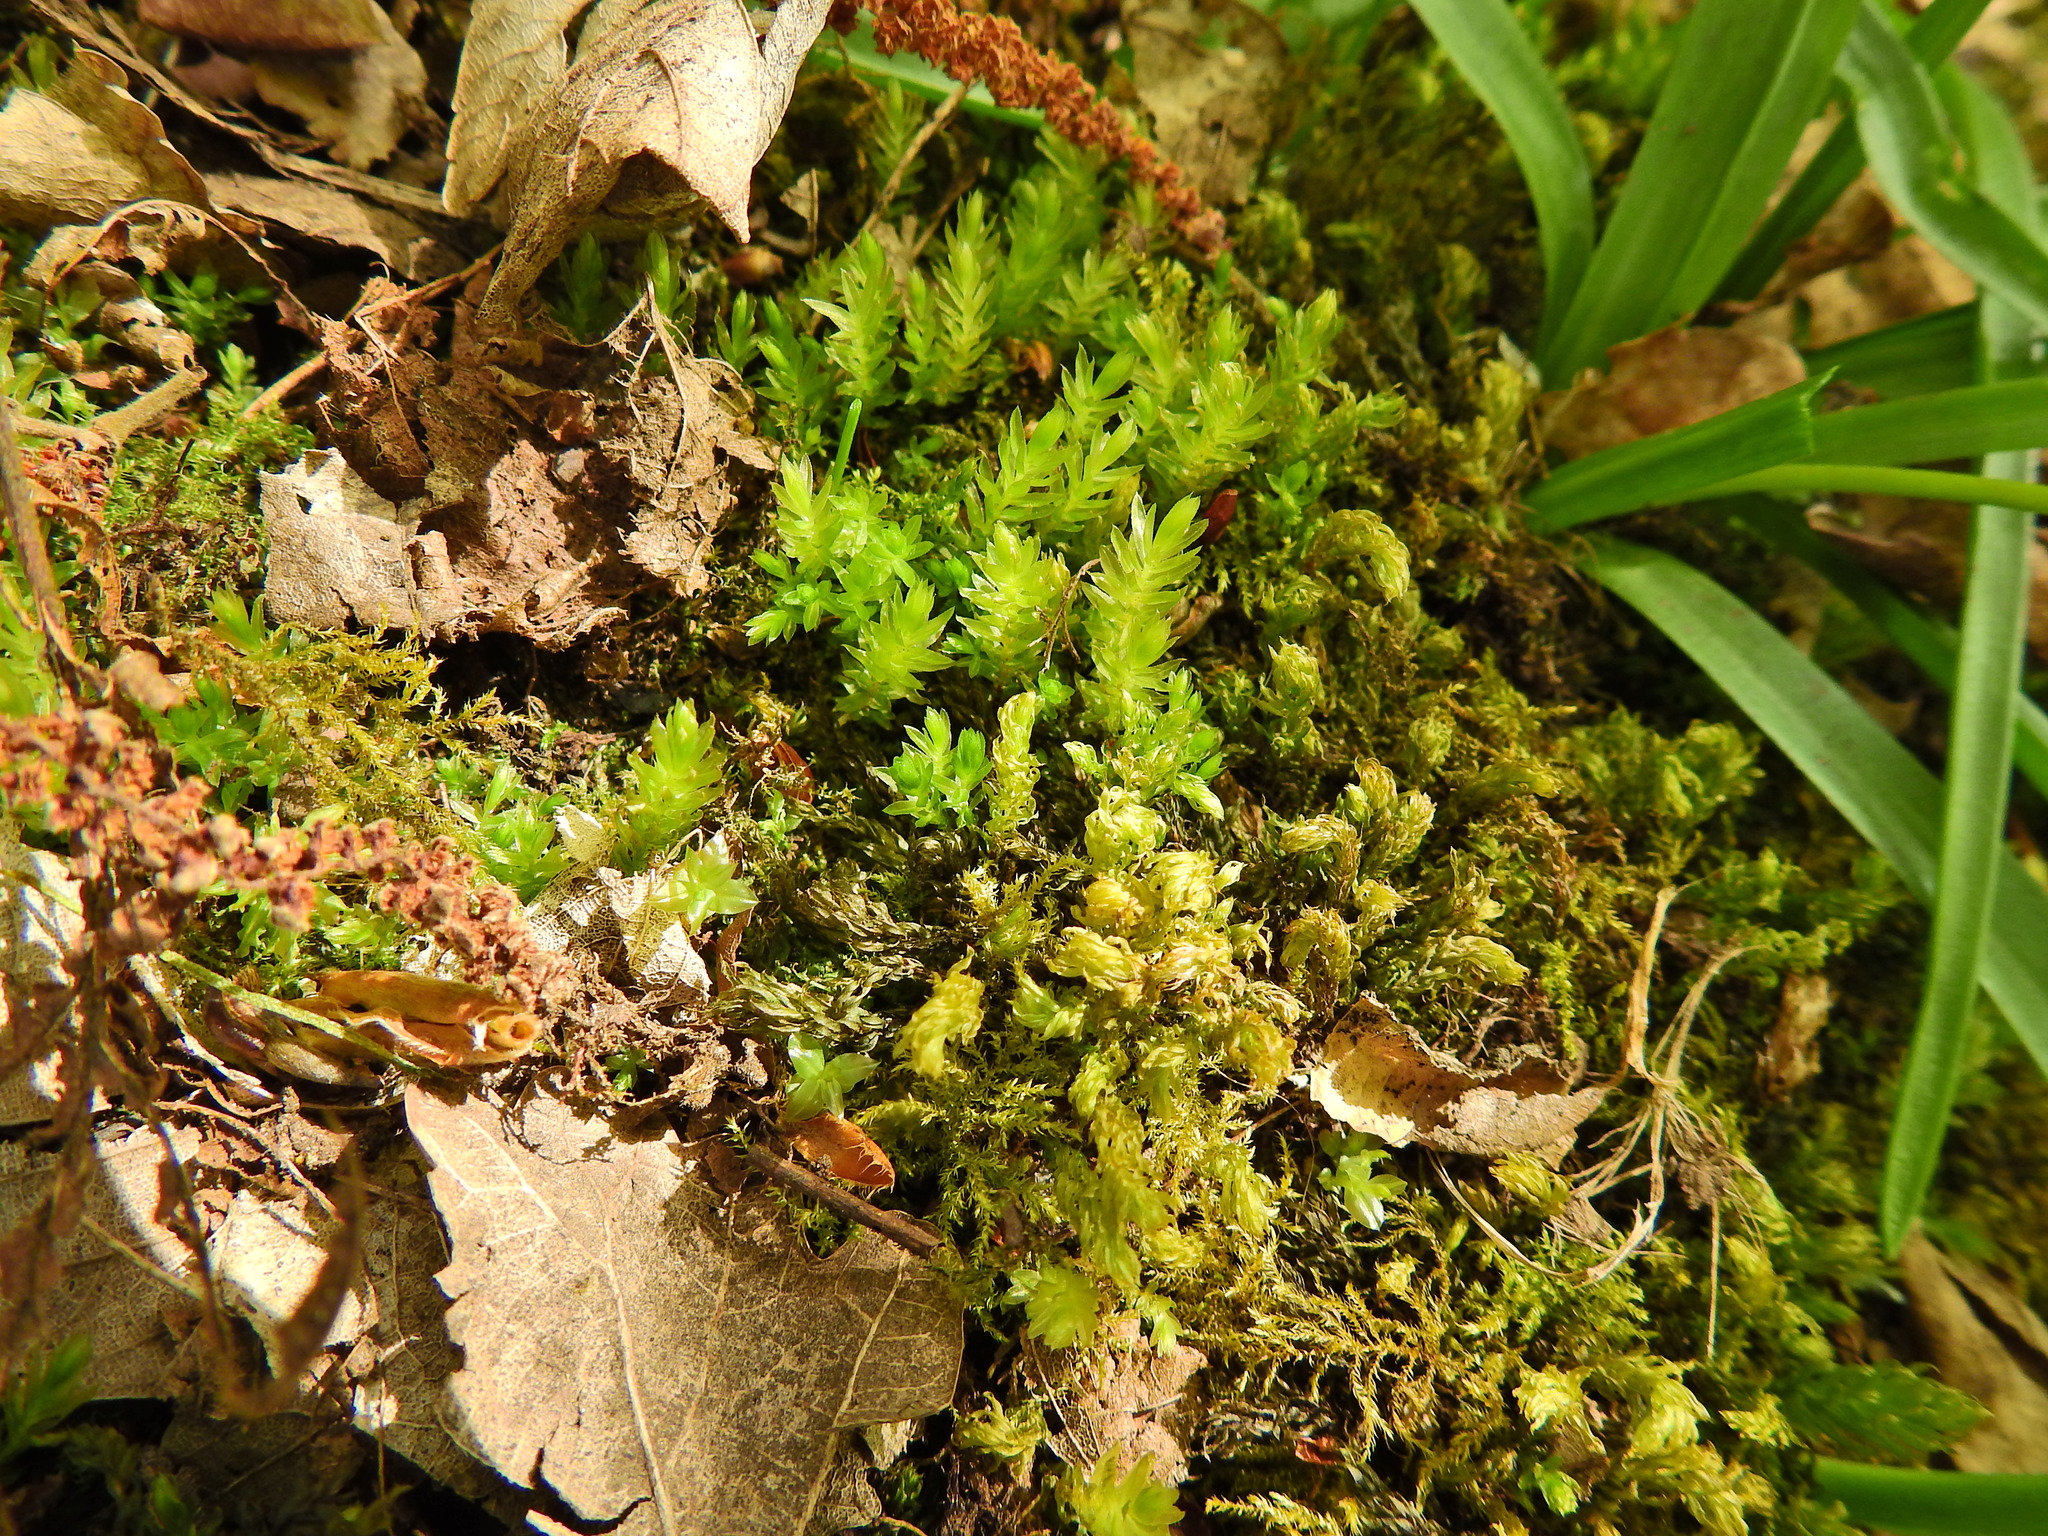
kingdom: Plantae
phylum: Bryophyta
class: Bryopsida
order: Bryales
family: Mniaceae
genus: Mnium
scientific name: Mnium hornum
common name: Swan's-neck leafy moss
